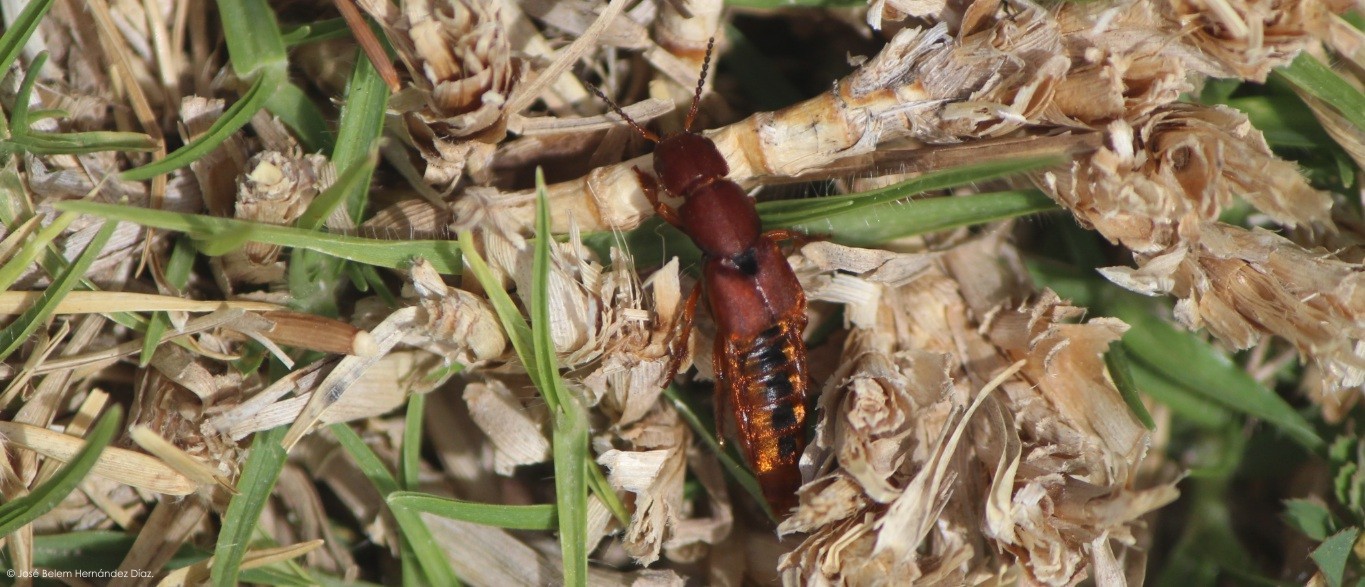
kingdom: Animalia
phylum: Arthropoda
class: Insecta
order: Coleoptera
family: Staphylinidae
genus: Platydracus
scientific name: Platydracus vittatus
